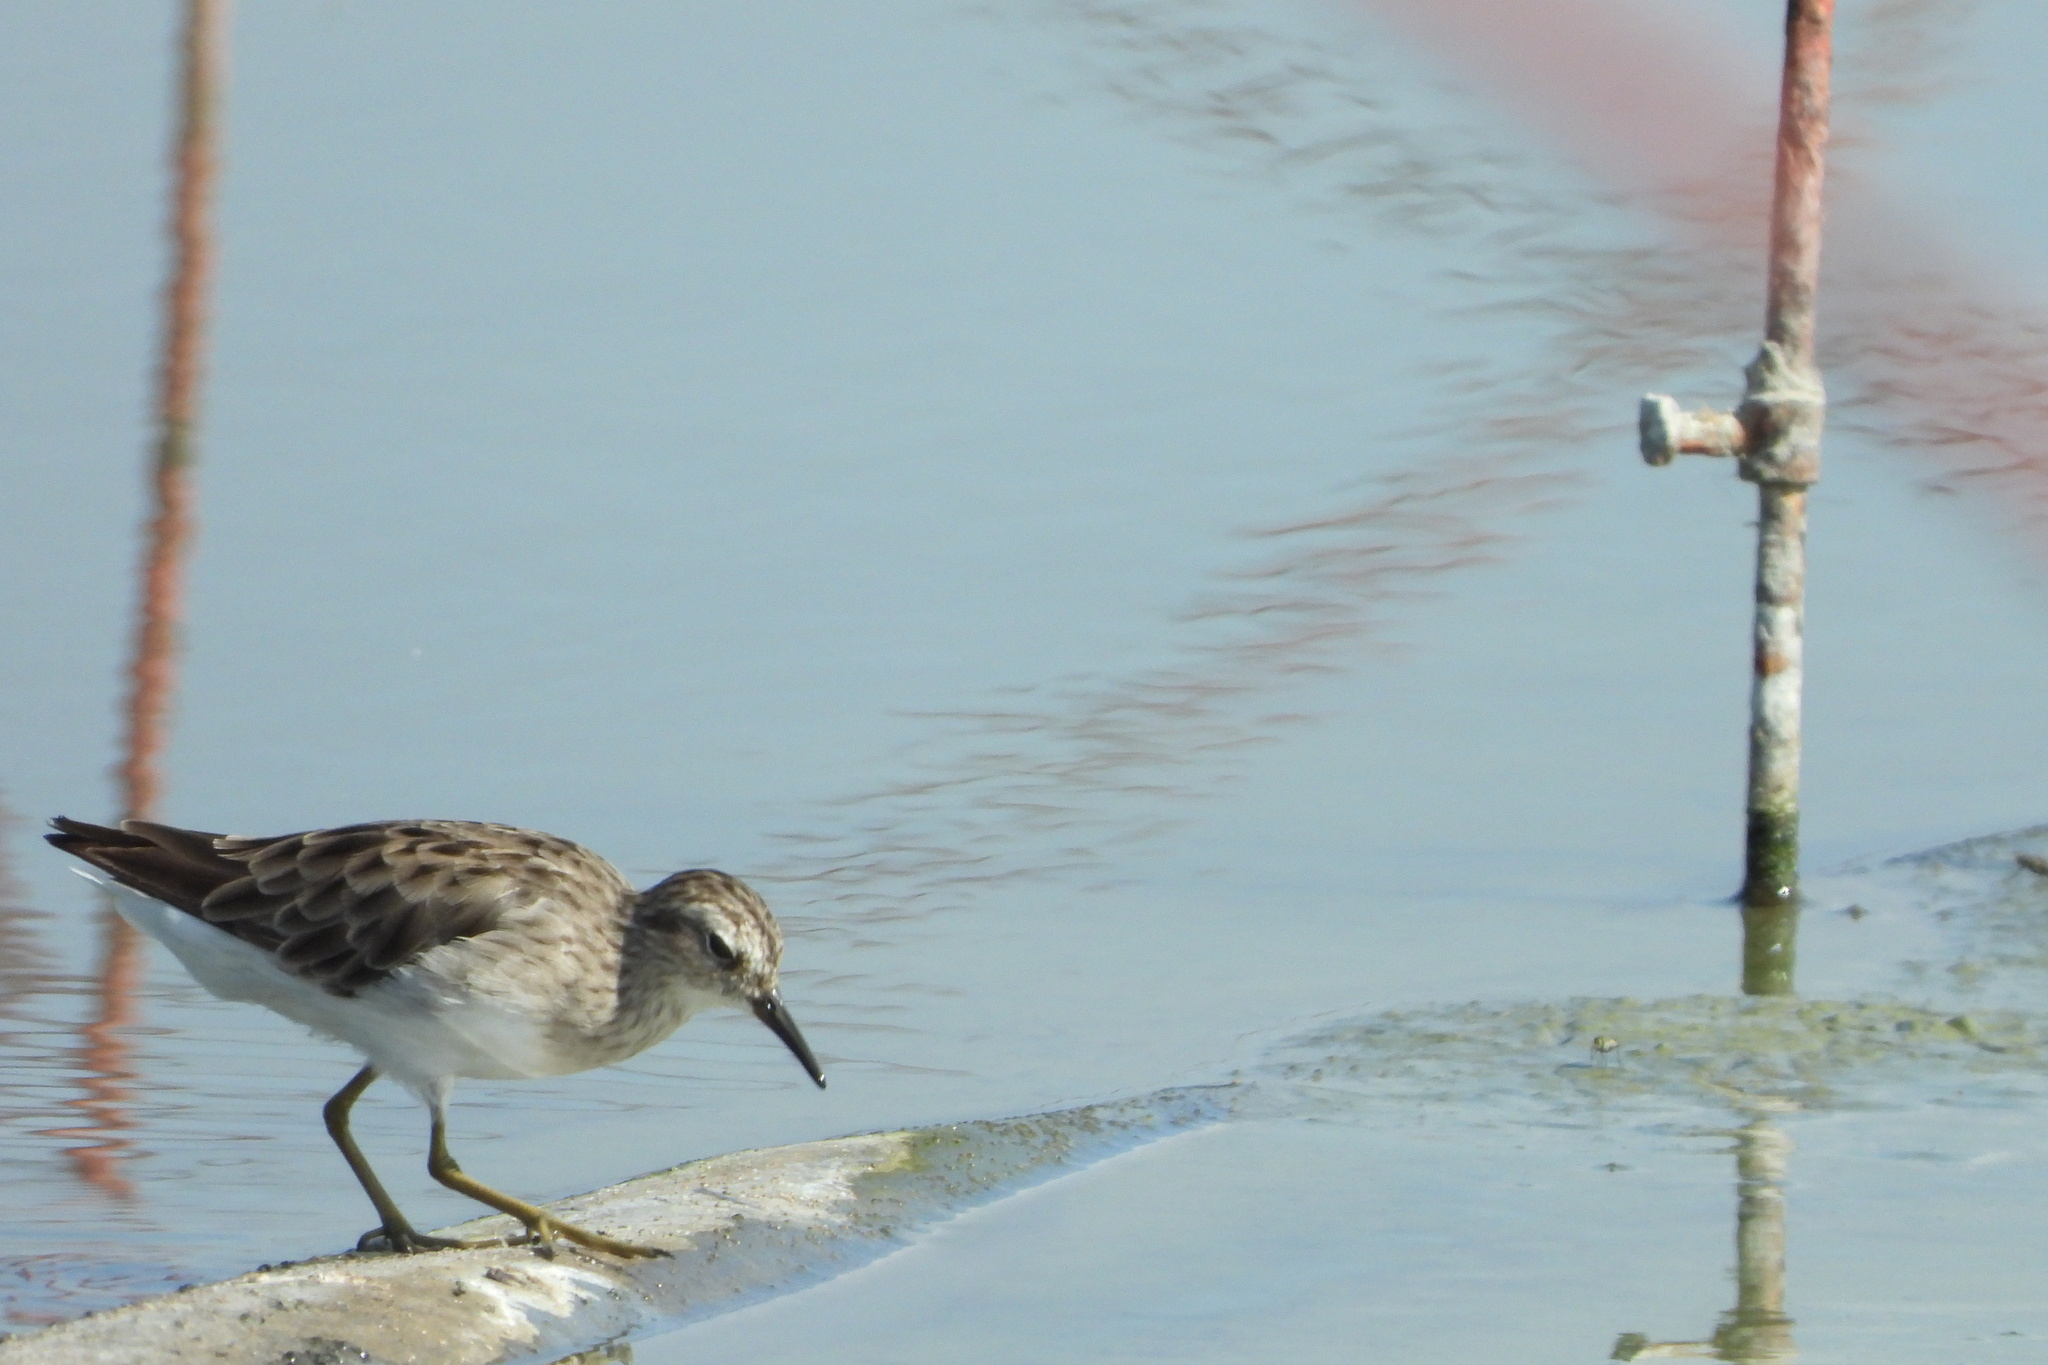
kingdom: Animalia
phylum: Chordata
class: Aves
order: Charadriiformes
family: Scolopacidae
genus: Calidris
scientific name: Calidris subminuta
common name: Long-toed stint
